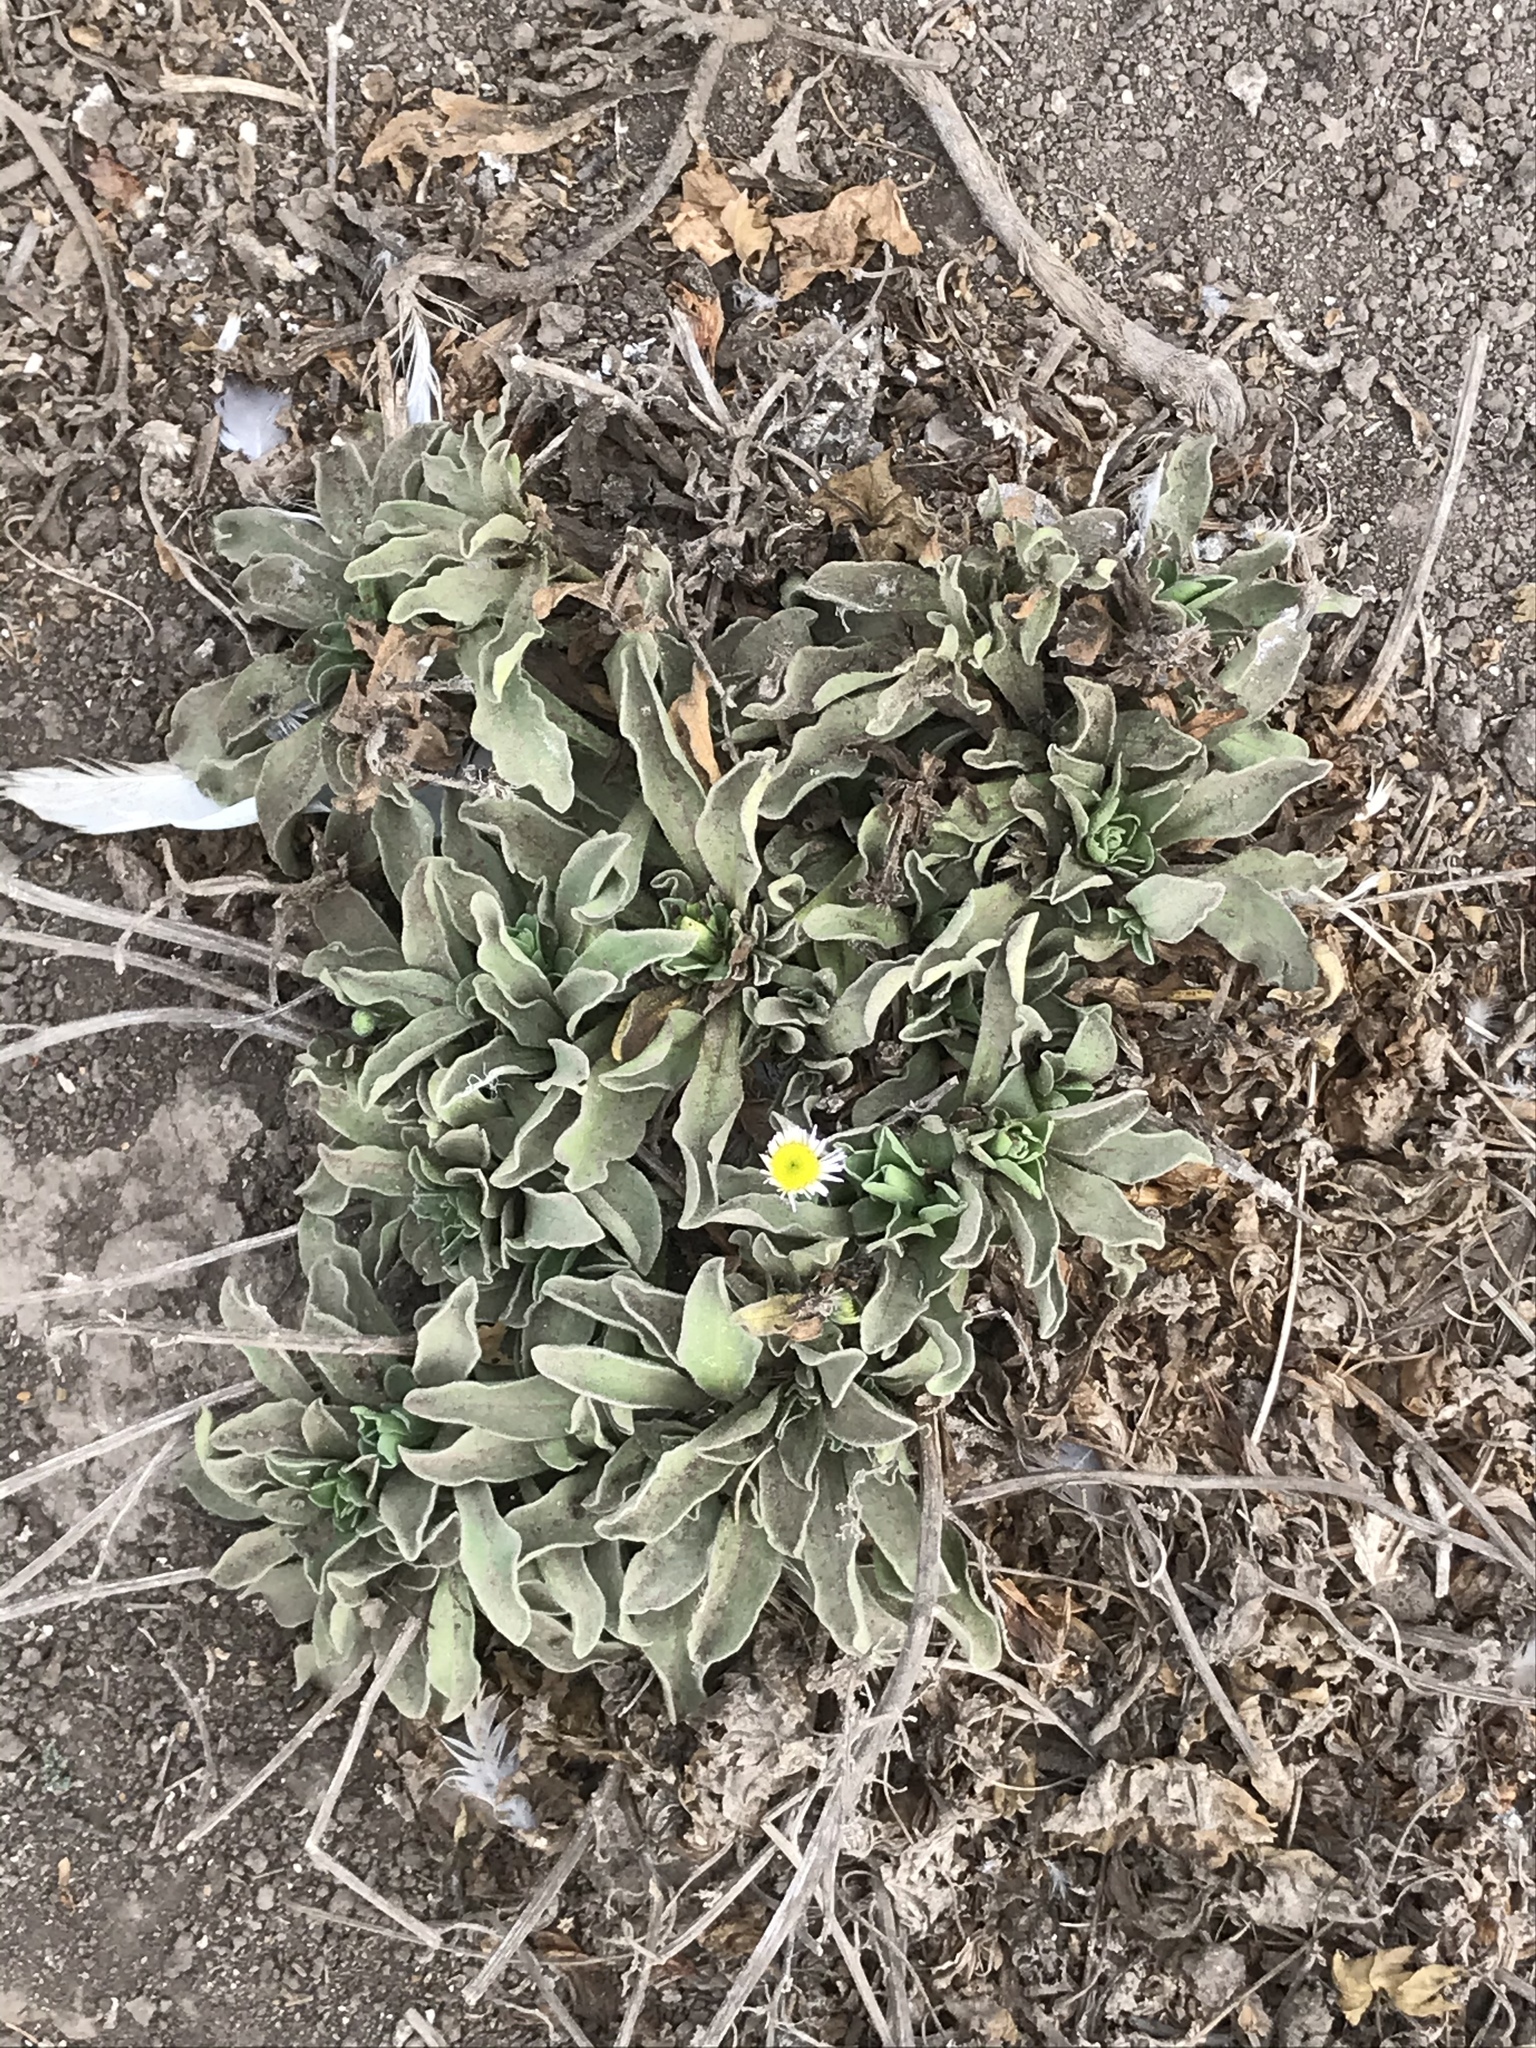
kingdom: Plantae
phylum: Tracheophyta
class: Magnoliopsida
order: Asterales
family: Asteraceae
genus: Erigeron
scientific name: Erigeron glaucus
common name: Seaside daisy
